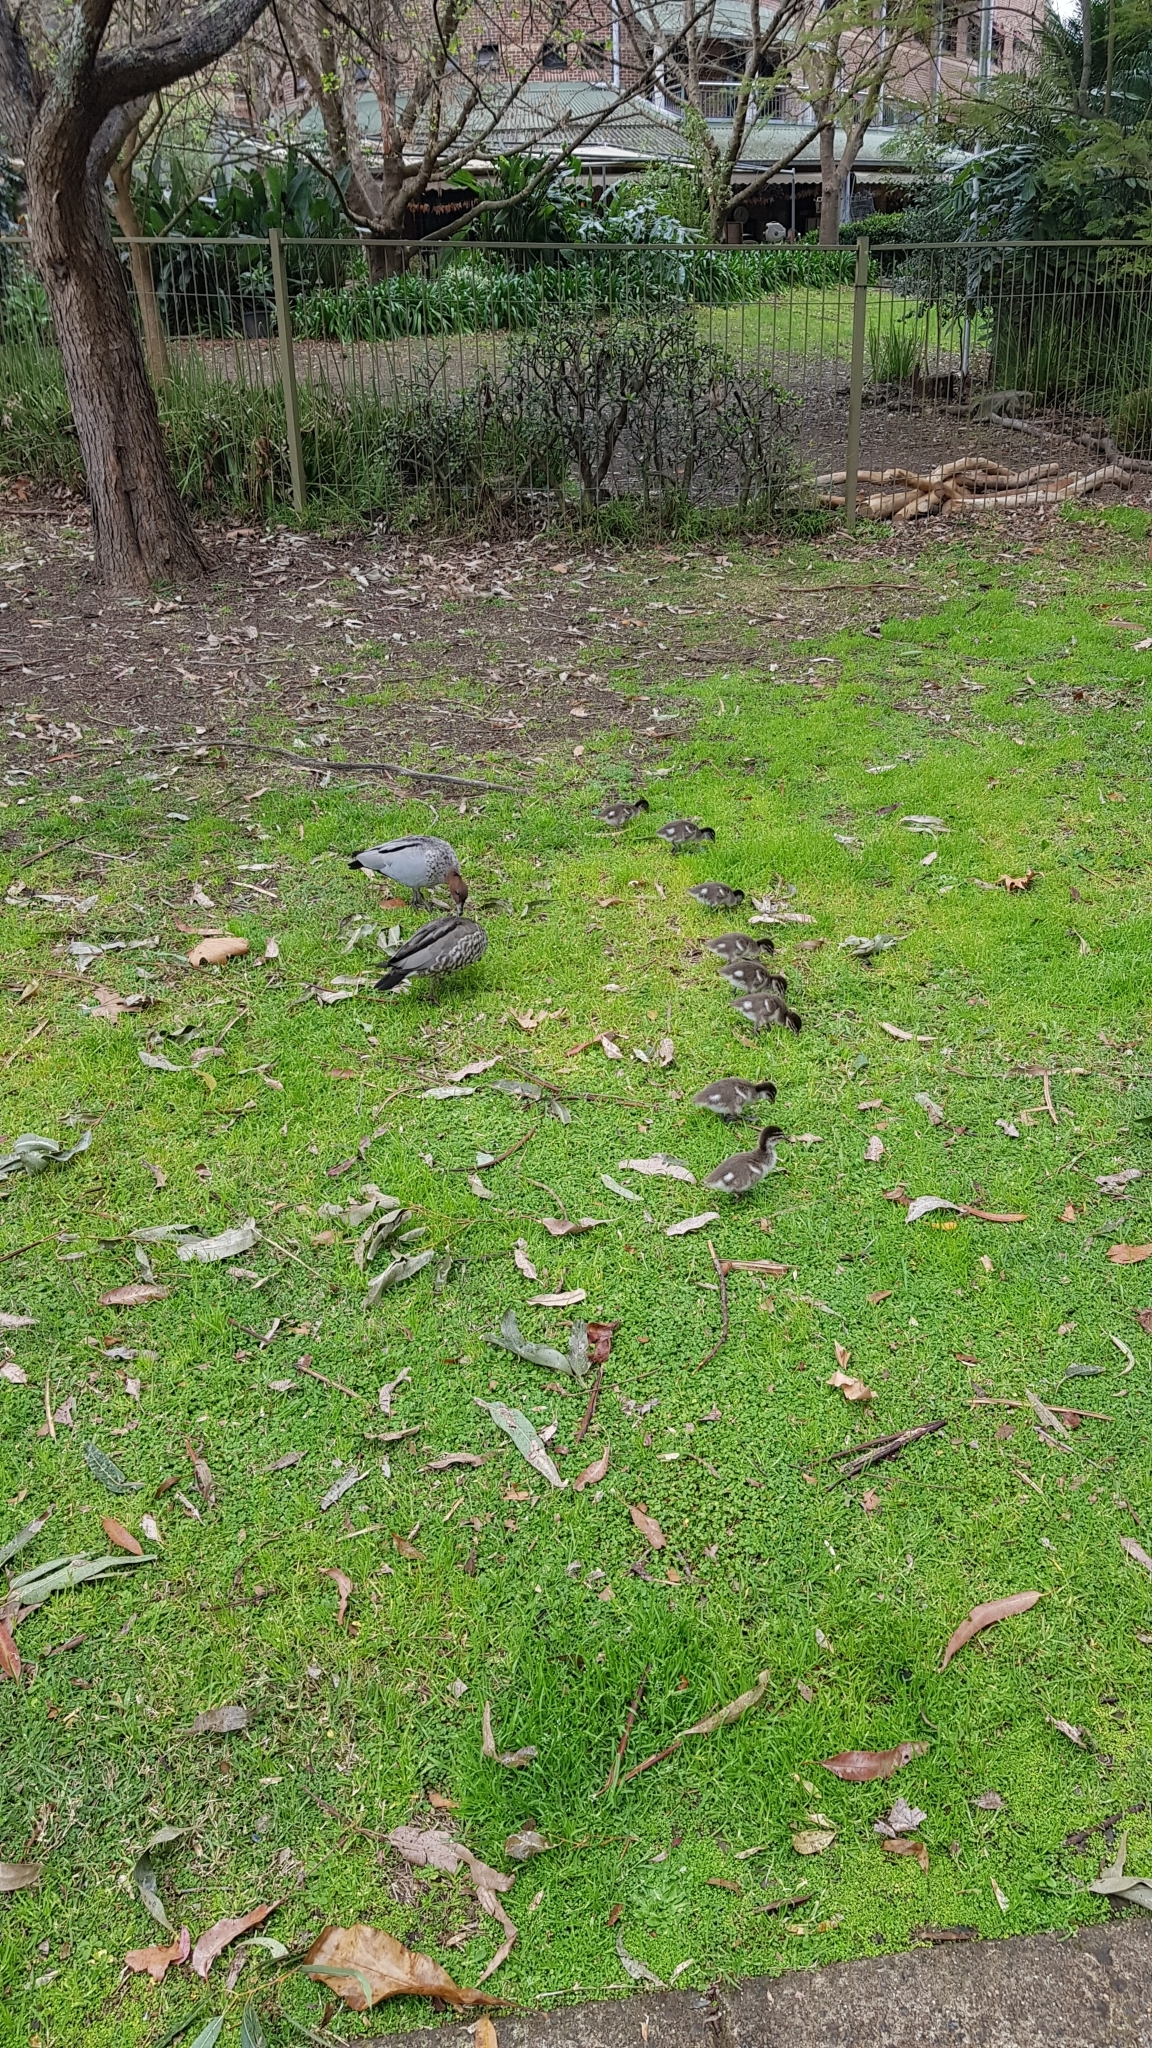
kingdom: Animalia
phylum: Chordata
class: Aves
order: Anseriformes
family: Anatidae
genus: Chenonetta
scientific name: Chenonetta jubata
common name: Maned duck
